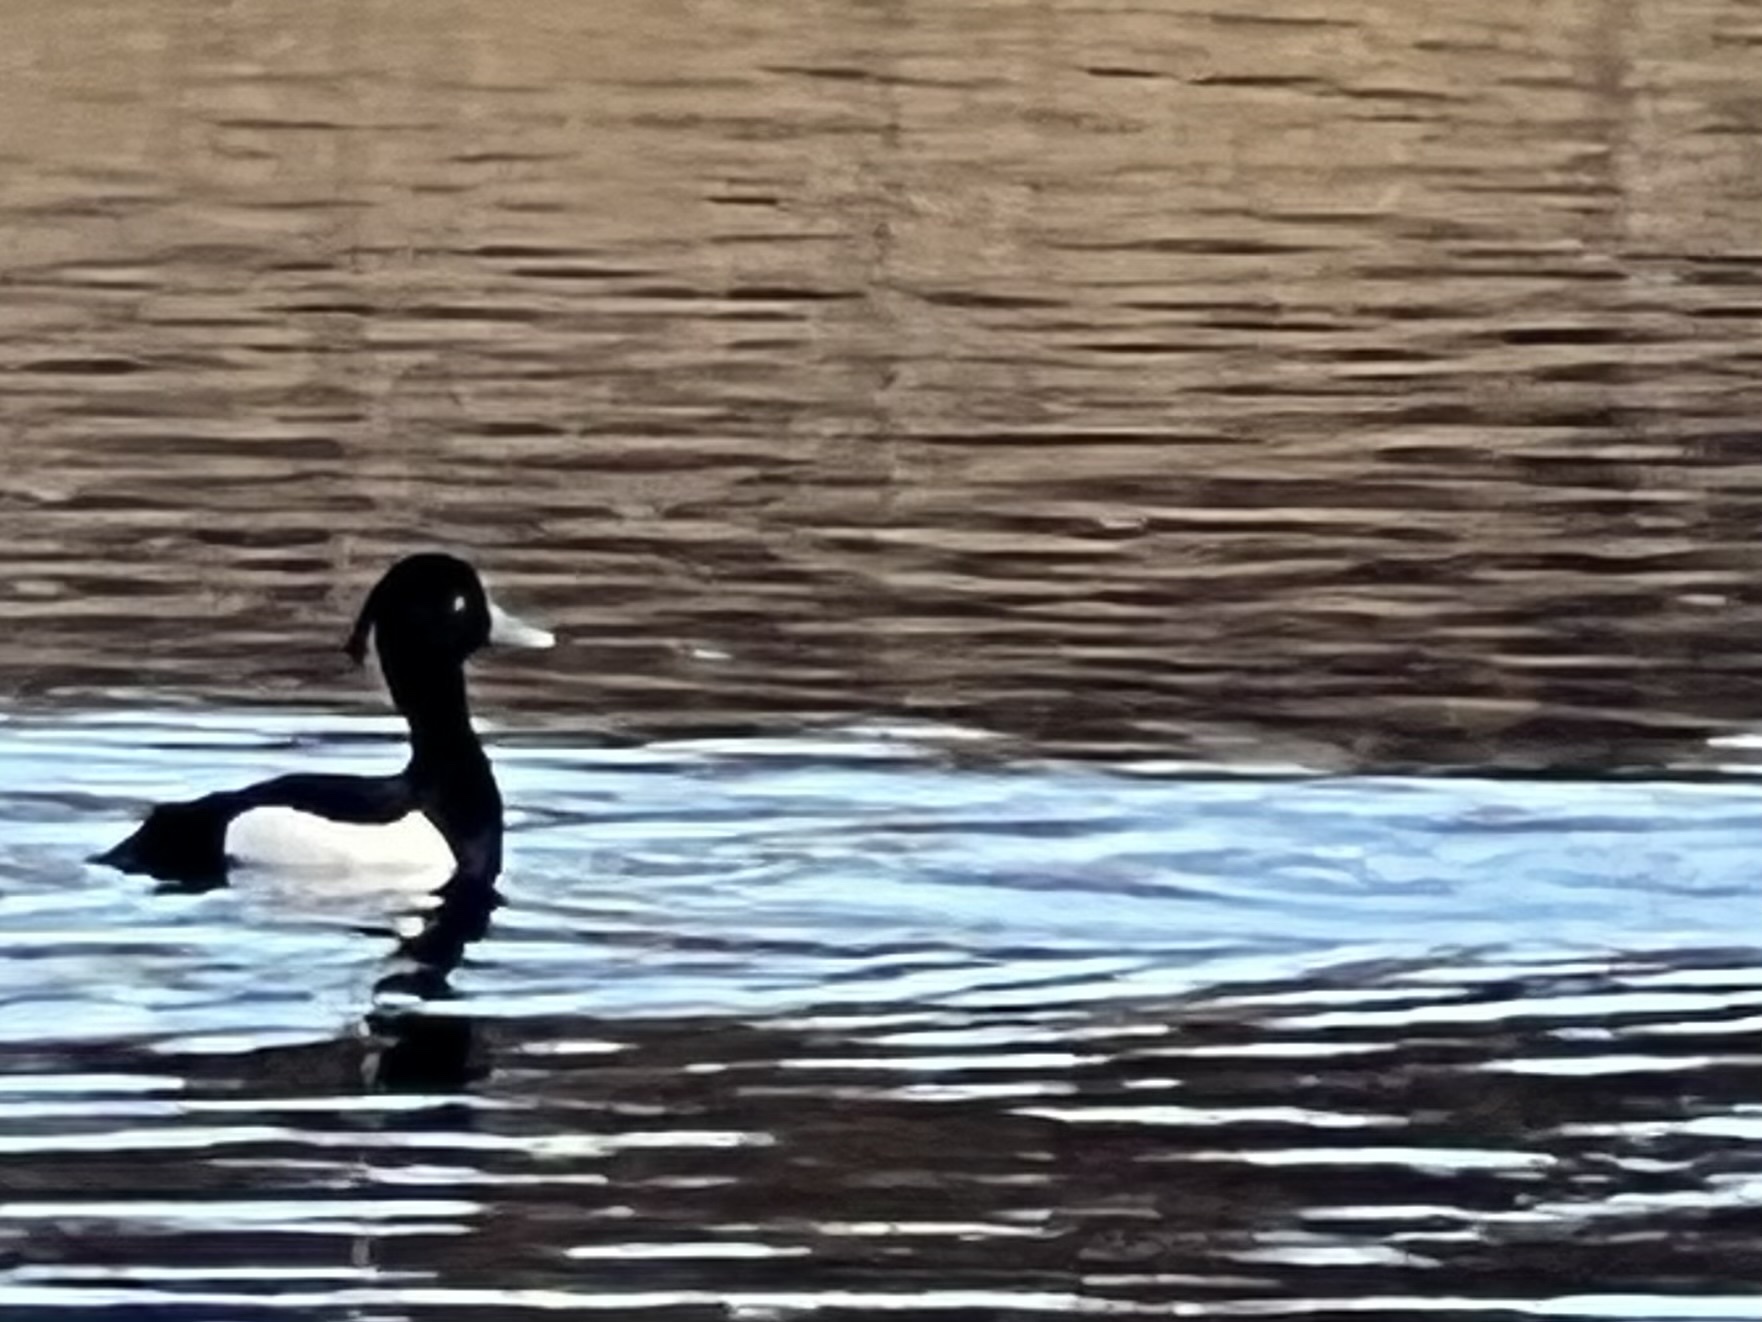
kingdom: Animalia
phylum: Chordata
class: Aves
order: Anseriformes
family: Anatidae
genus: Aythya
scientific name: Aythya fuligula
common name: Tufted duck
